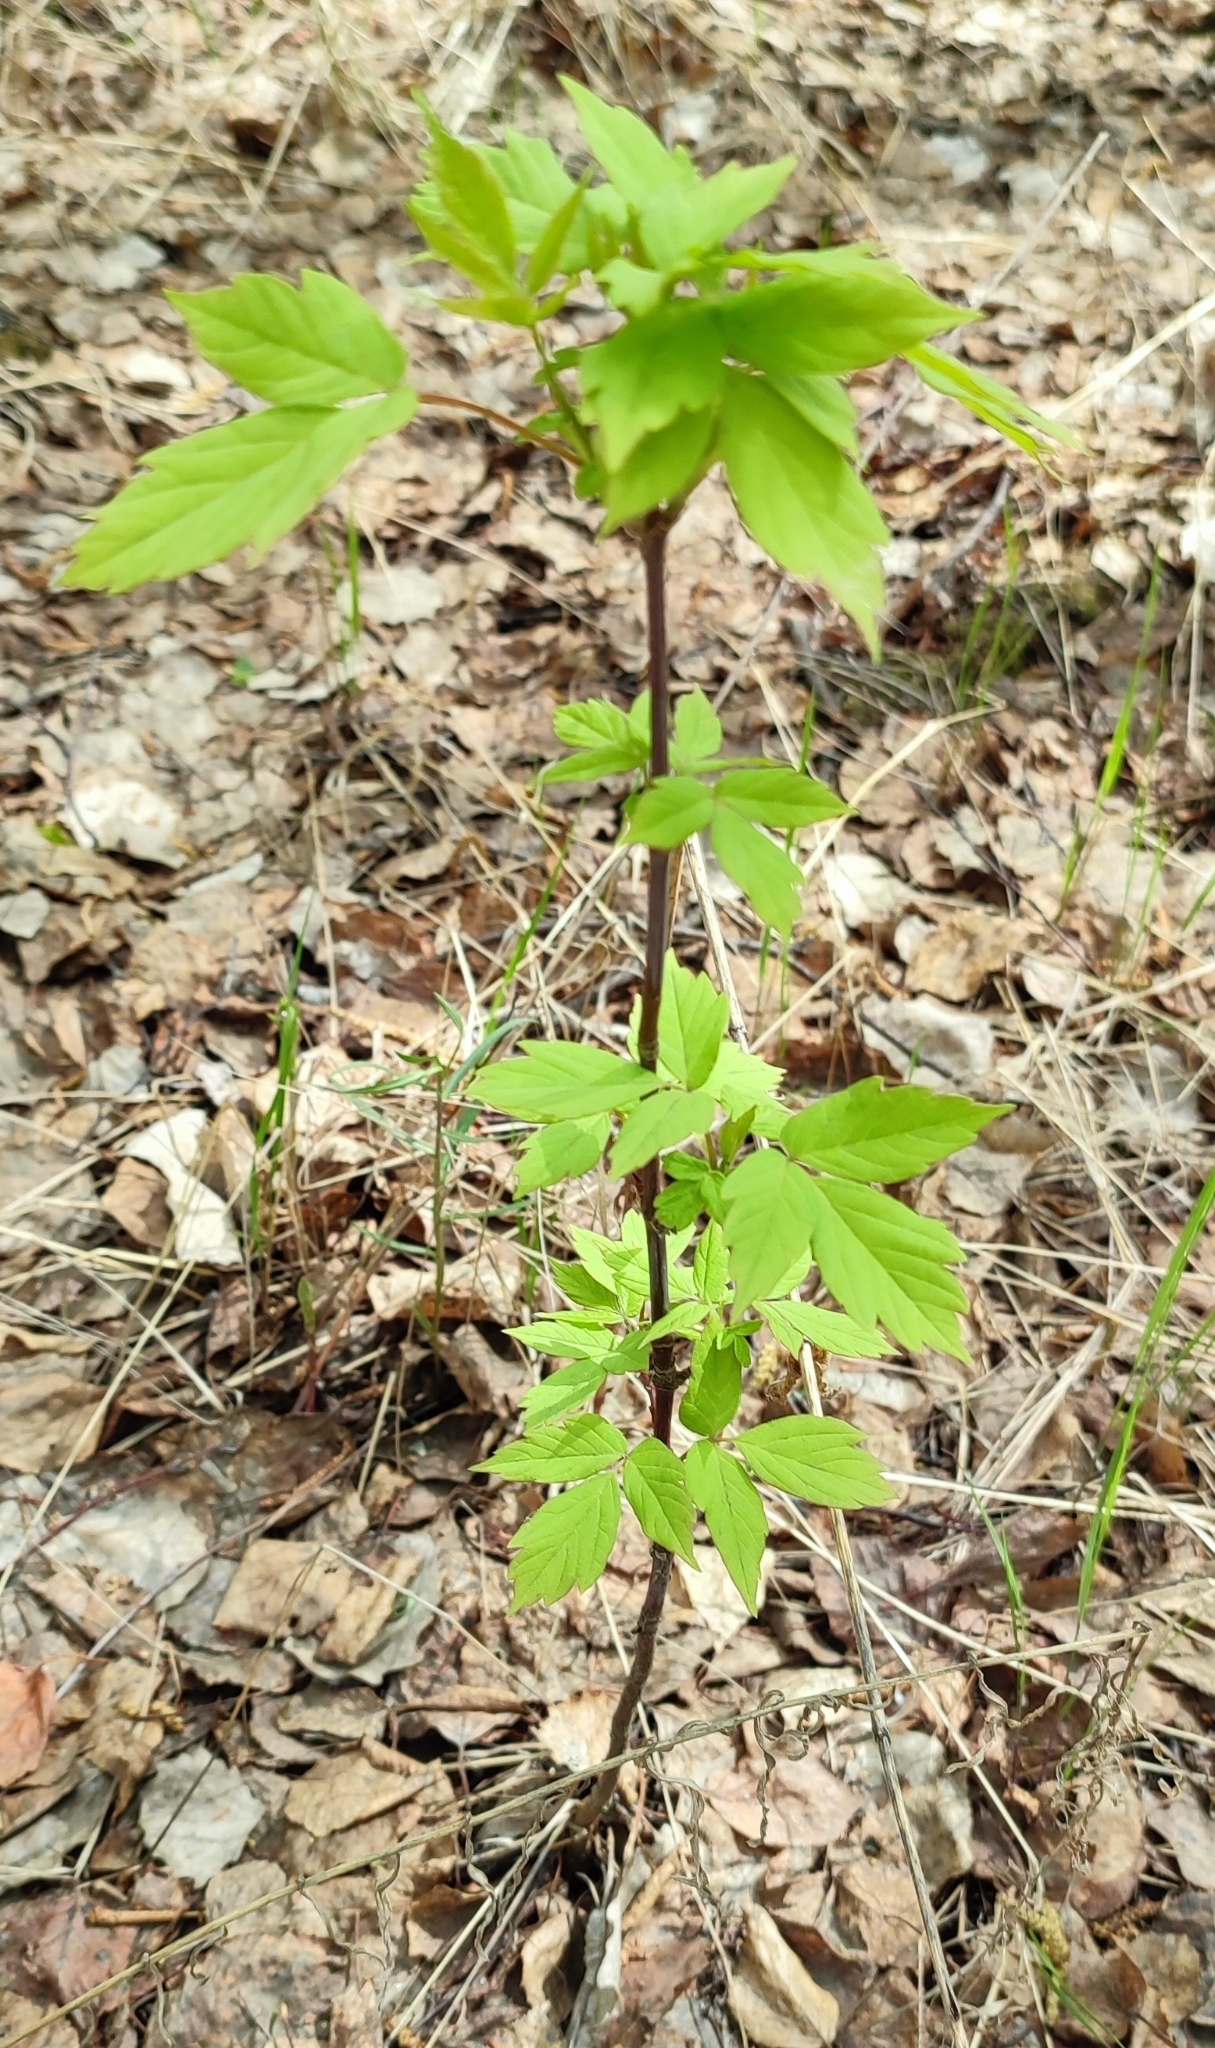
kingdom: Plantae
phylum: Tracheophyta
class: Magnoliopsida
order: Sapindales
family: Sapindaceae
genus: Acer
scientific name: Acer negundo
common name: Ashleaf maple
